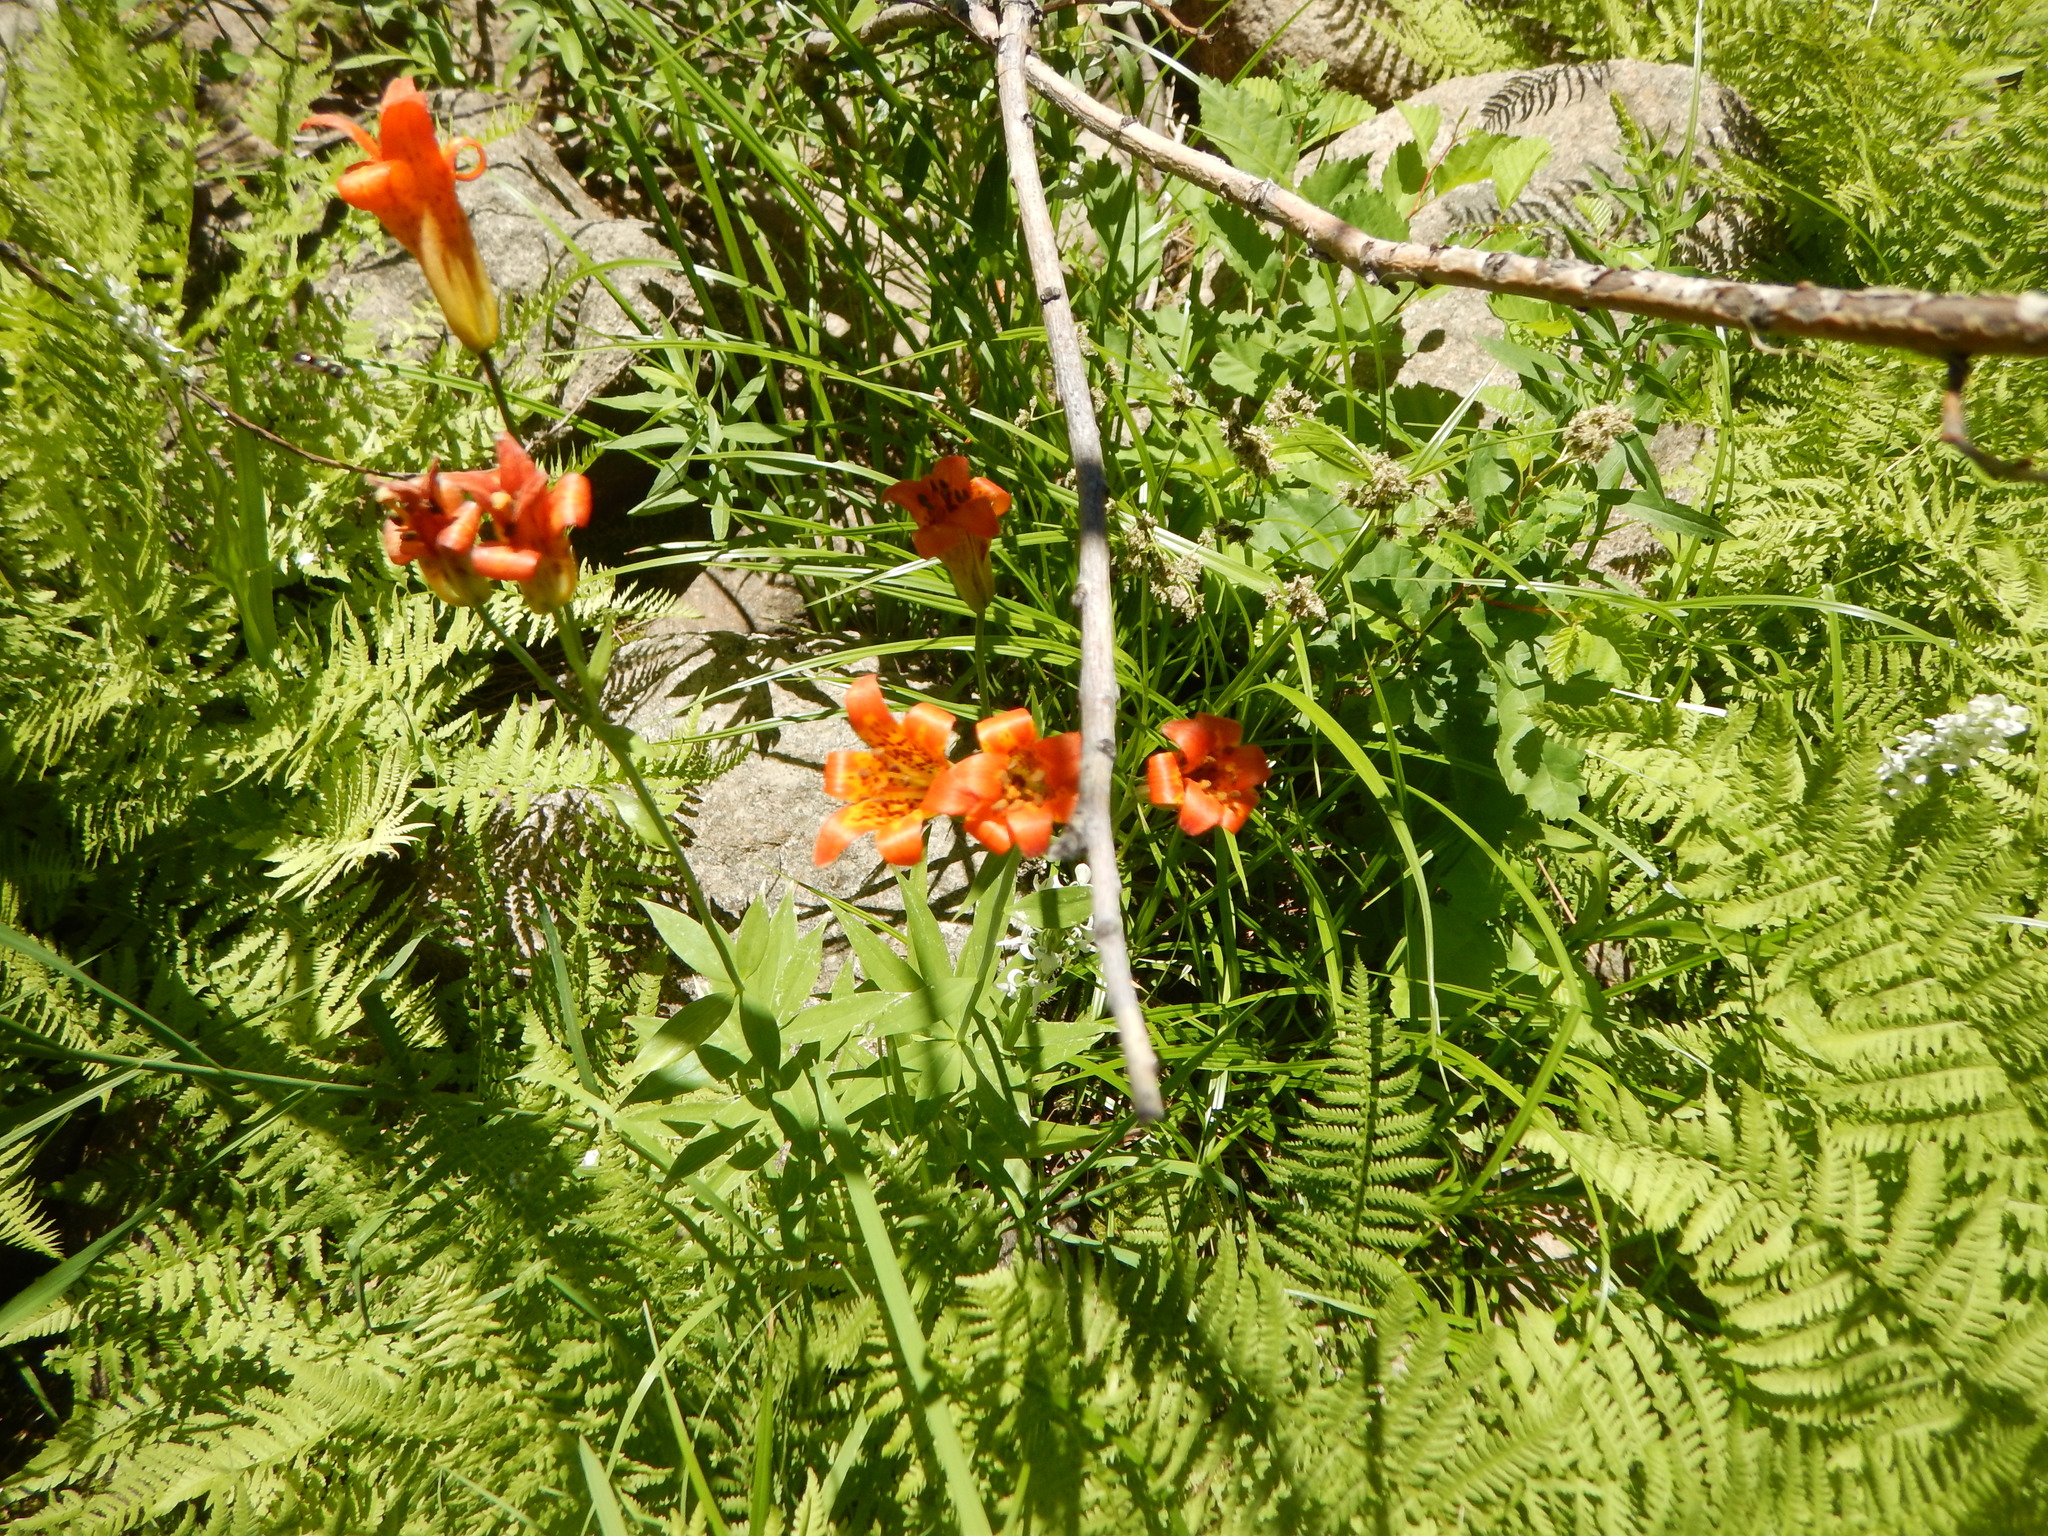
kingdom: Plantae
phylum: Tracheophyta
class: Liliopsida
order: Liliales
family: Liliaceae
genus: Lilium
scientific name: Lilium parvum
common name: Alpine lily
